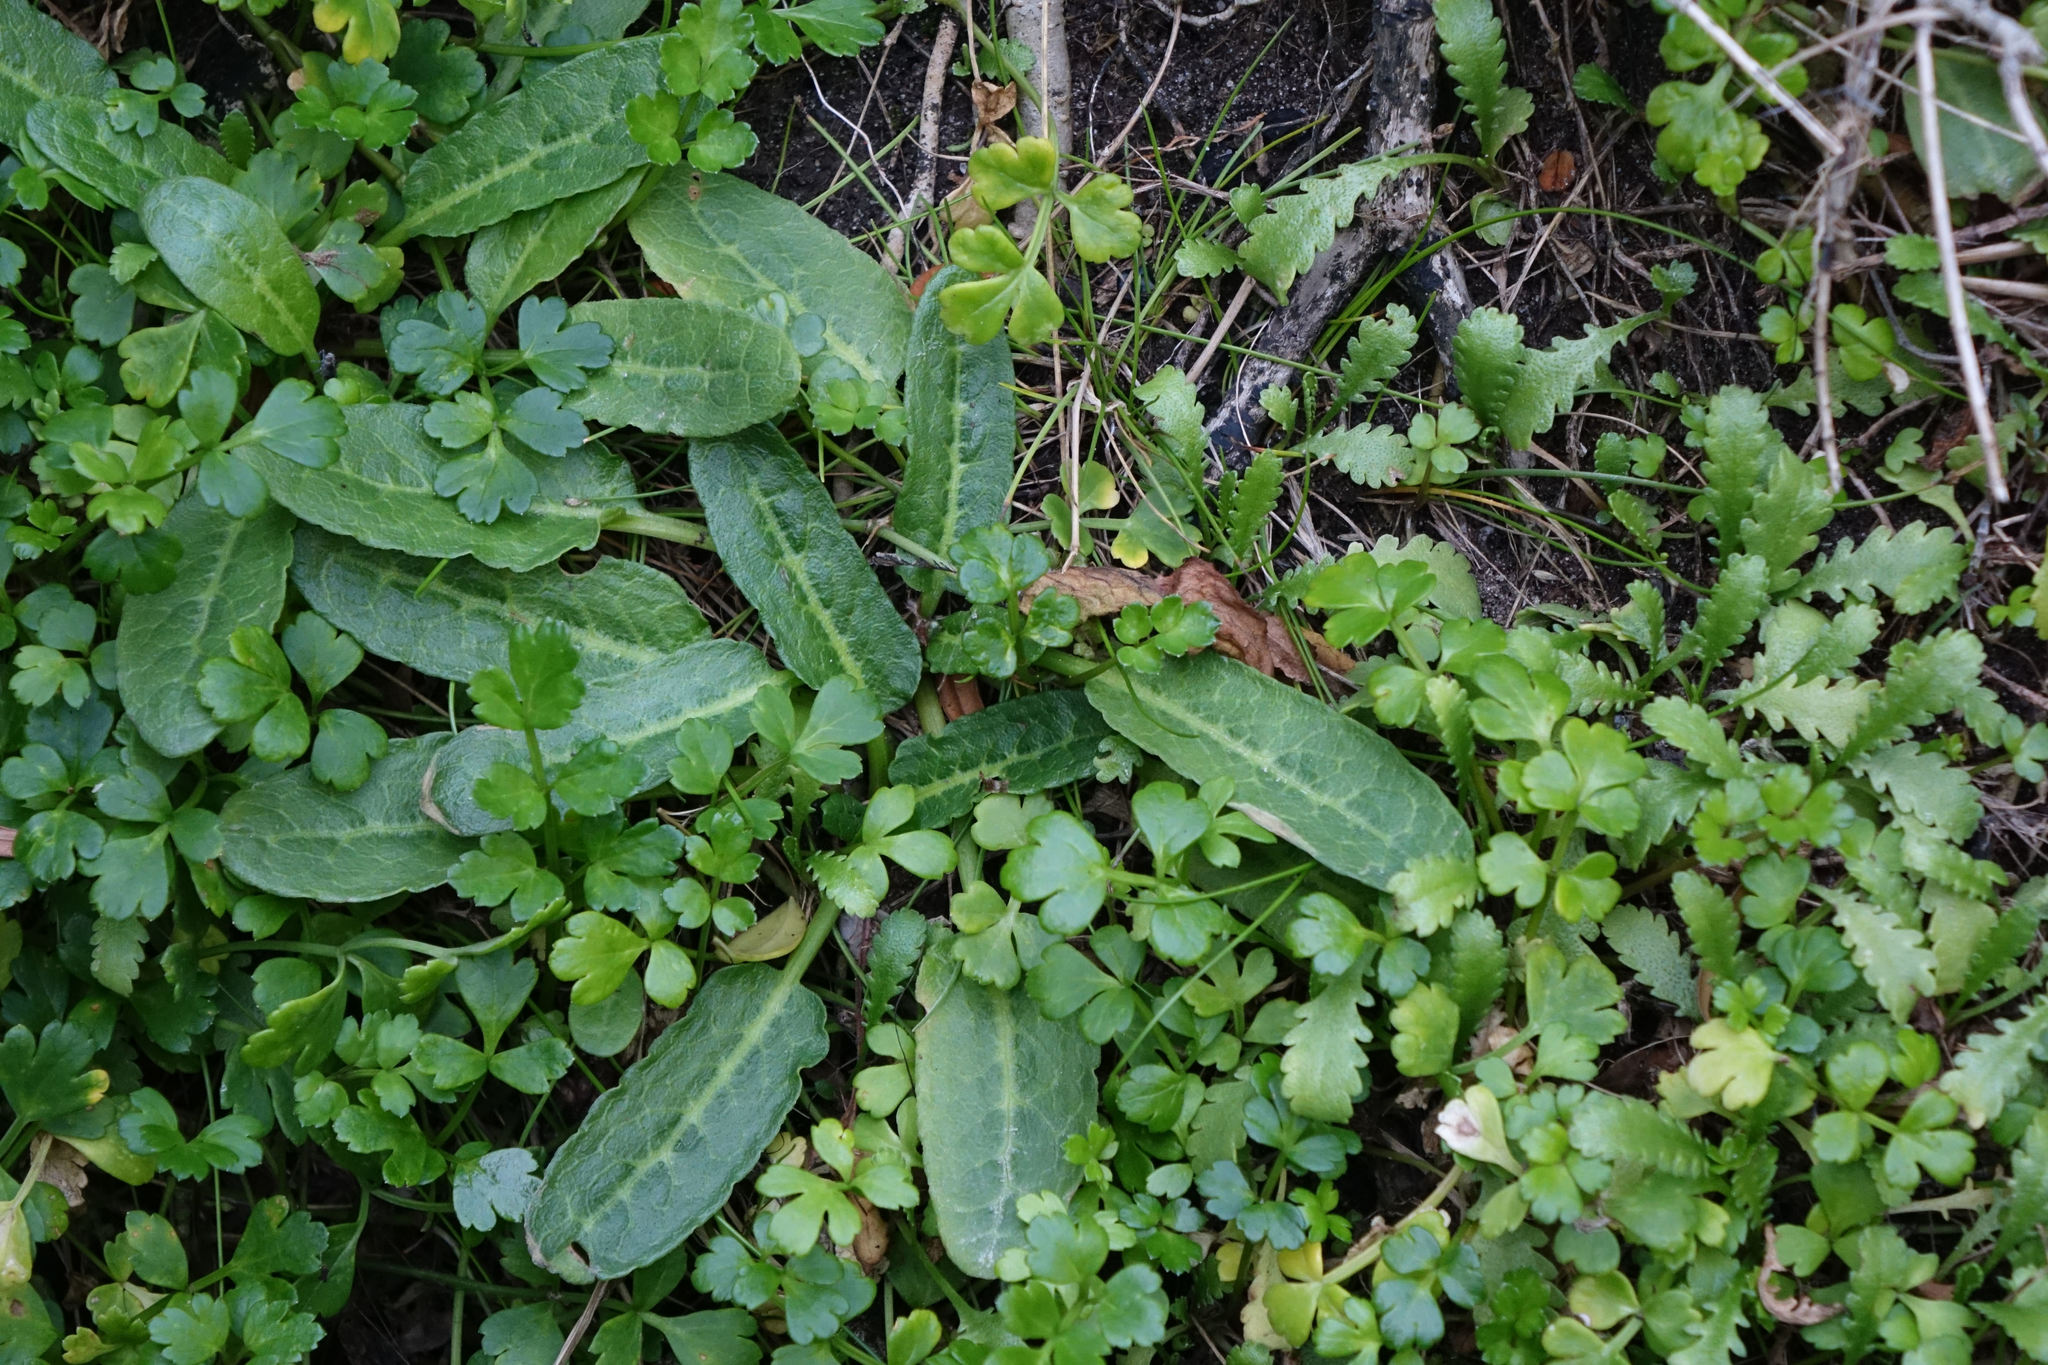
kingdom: Plantae
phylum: Tracheophyta
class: Magnoliopsida
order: Caryophyllales
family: Polygonaceae
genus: Rumex
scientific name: Rumex neglectus
